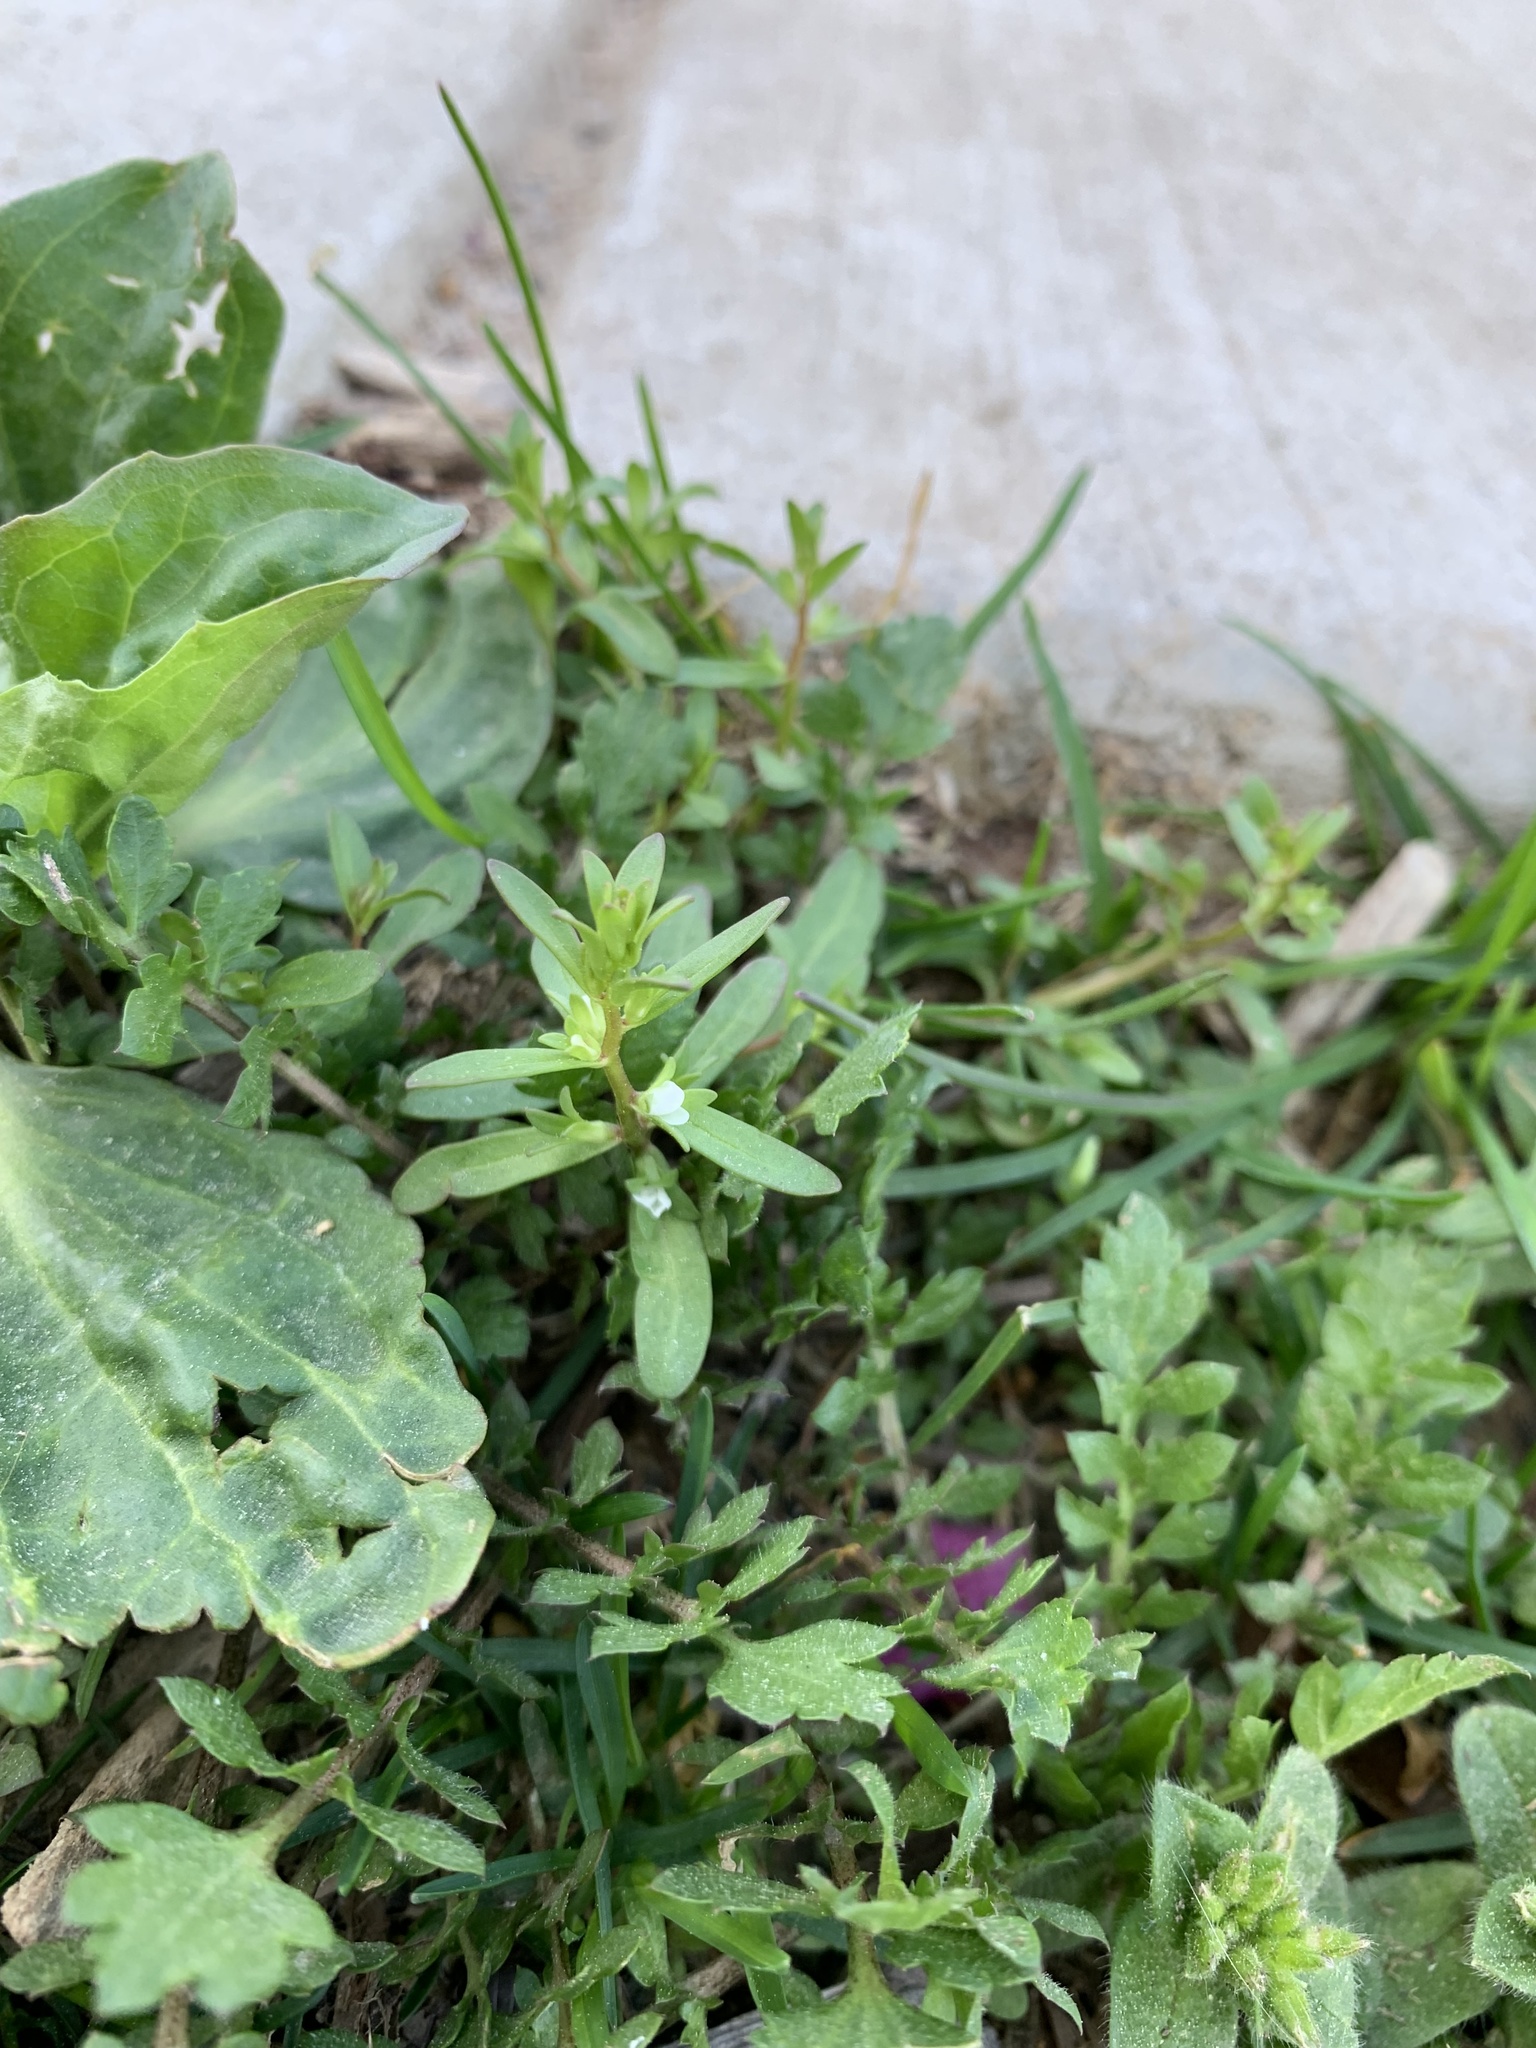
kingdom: Plantae
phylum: Tracheophyta
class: Magnoliopsida
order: Lamiales
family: Plantaginaceae
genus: Veronica
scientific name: Veronica peregrina
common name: Neckweed
